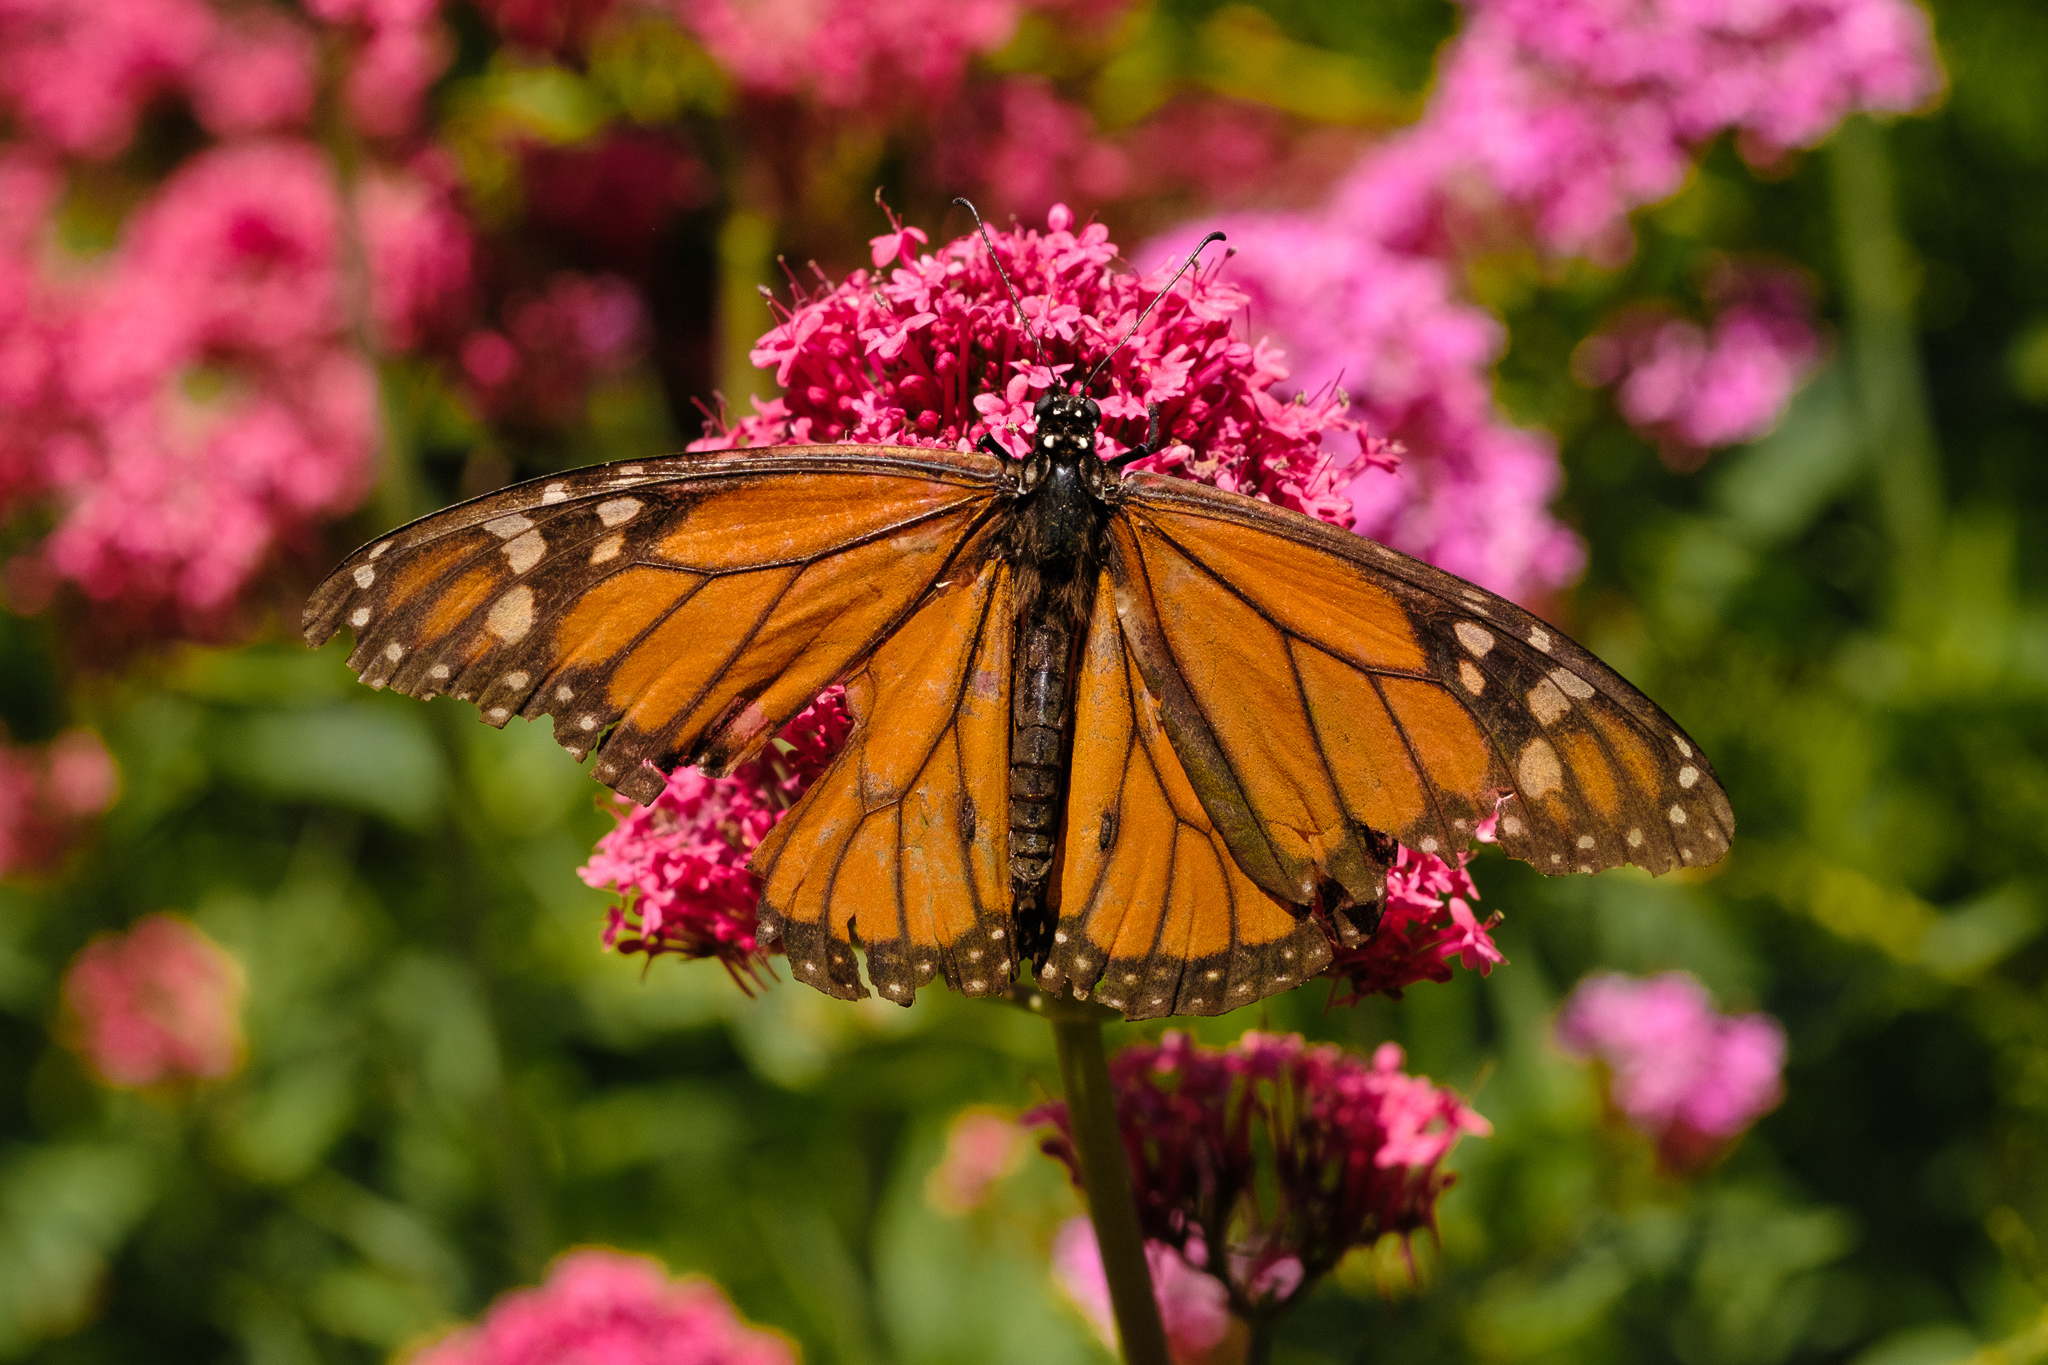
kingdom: Animalia
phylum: Arthropoda
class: Insecta
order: Lepidoptera
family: Nymphalidae
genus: Danaus
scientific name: Danaus plexippus
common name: Monarch
